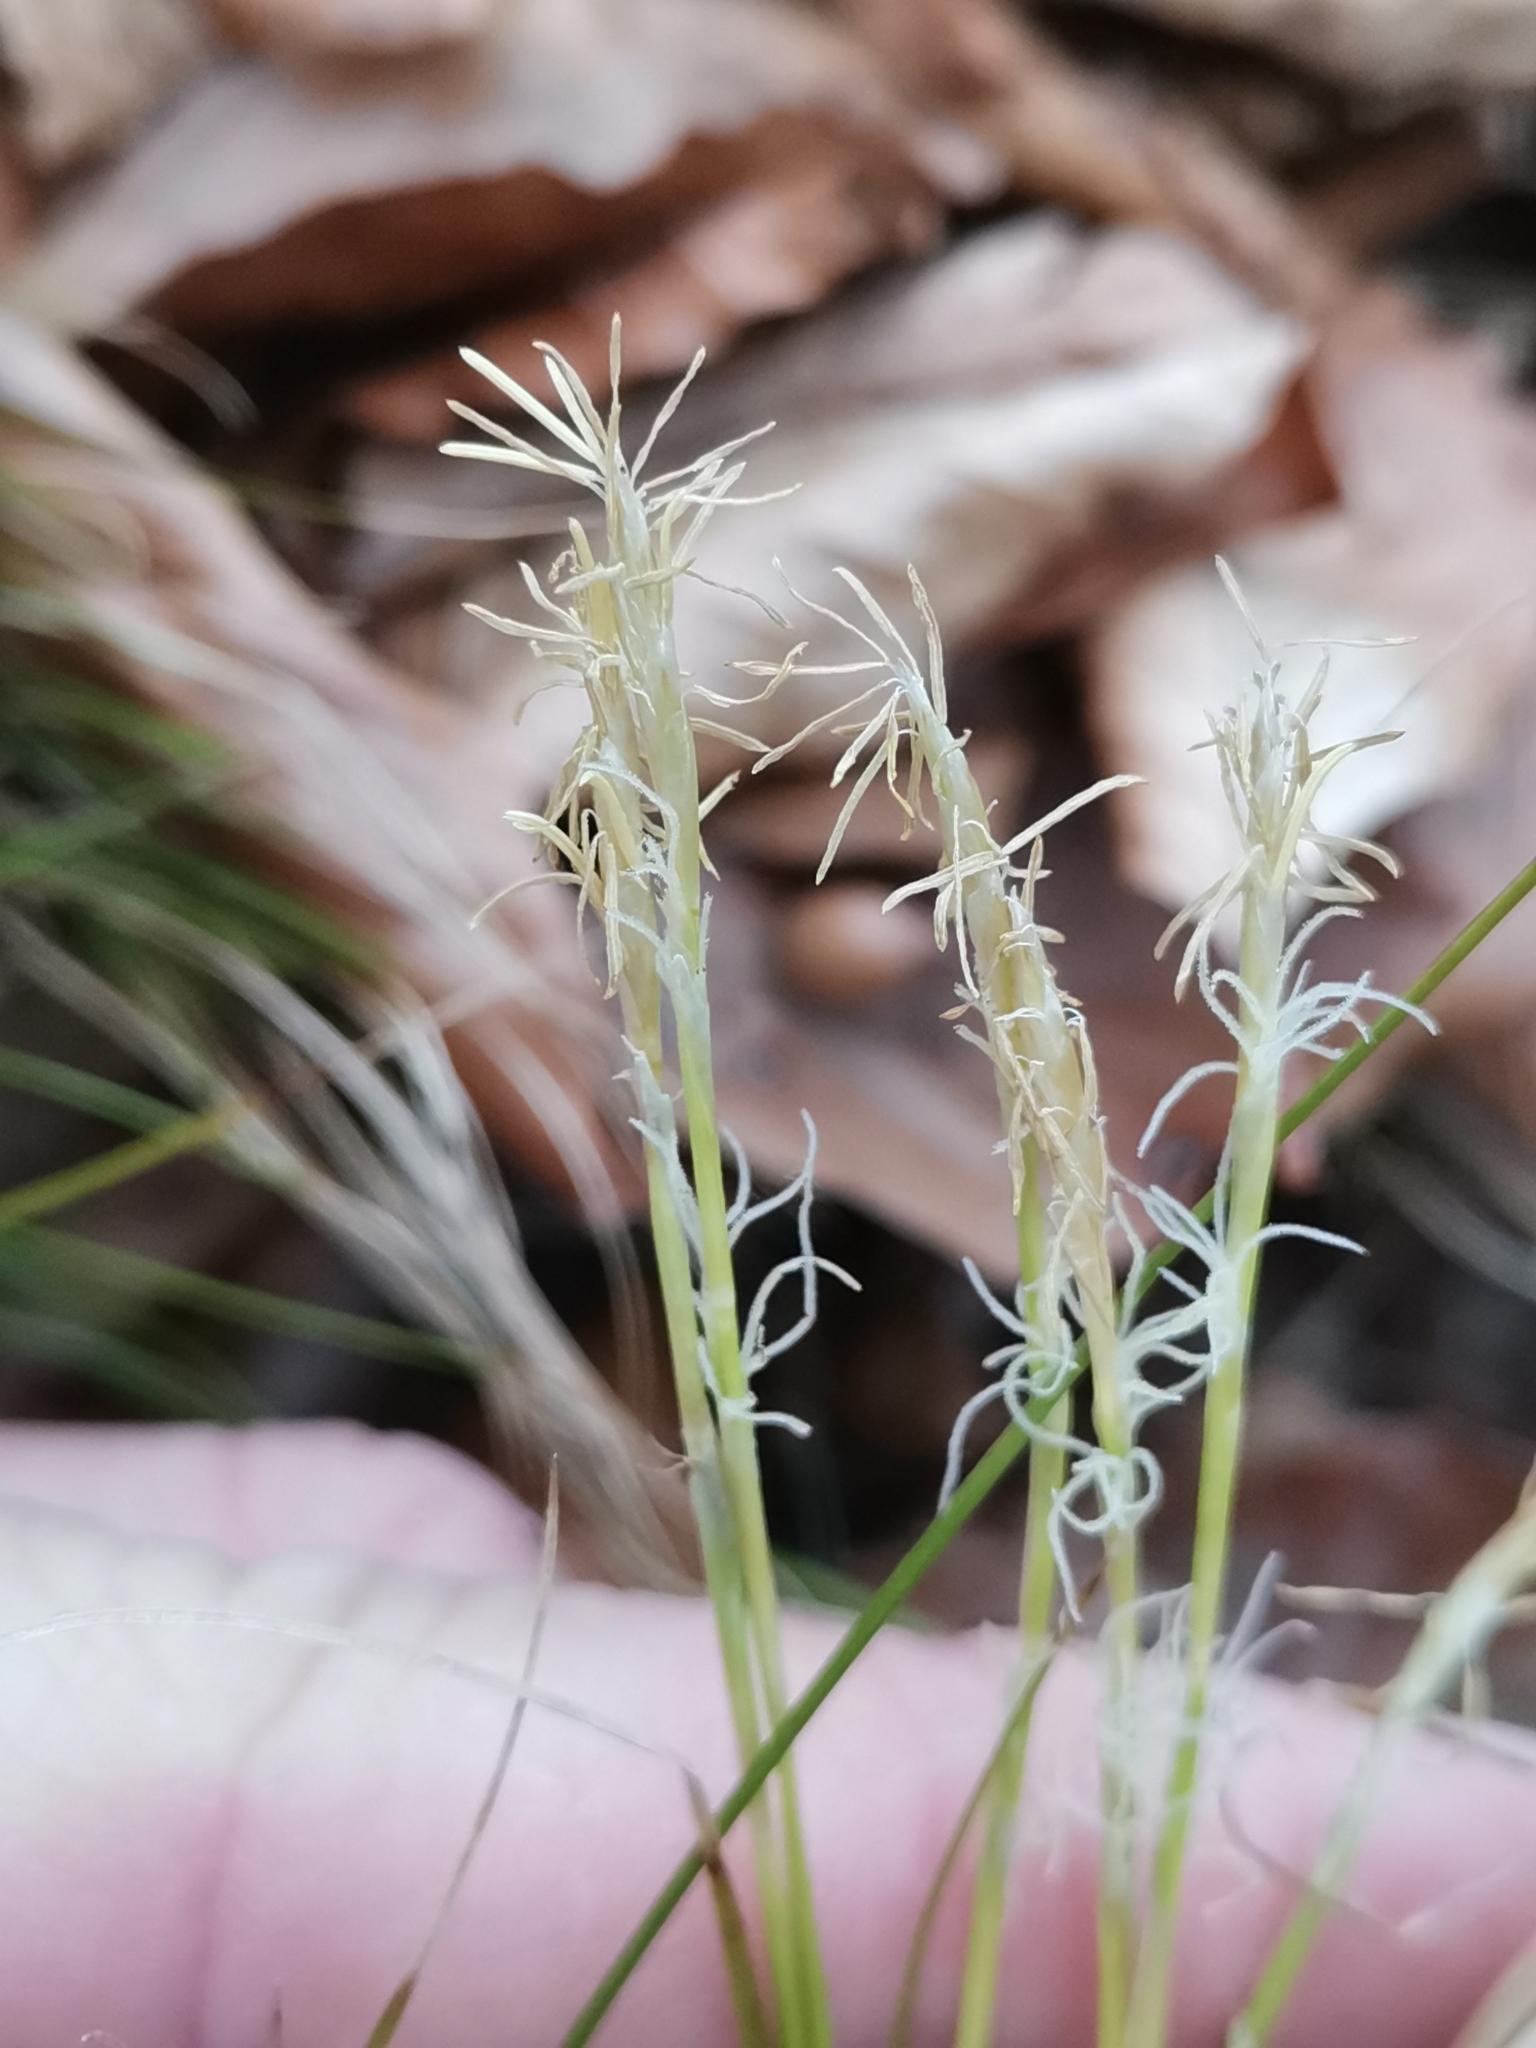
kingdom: Plantae
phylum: Tracheophyta
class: Liliopsida
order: Poales
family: Cyperaceae
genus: Carex
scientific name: Carex alba
